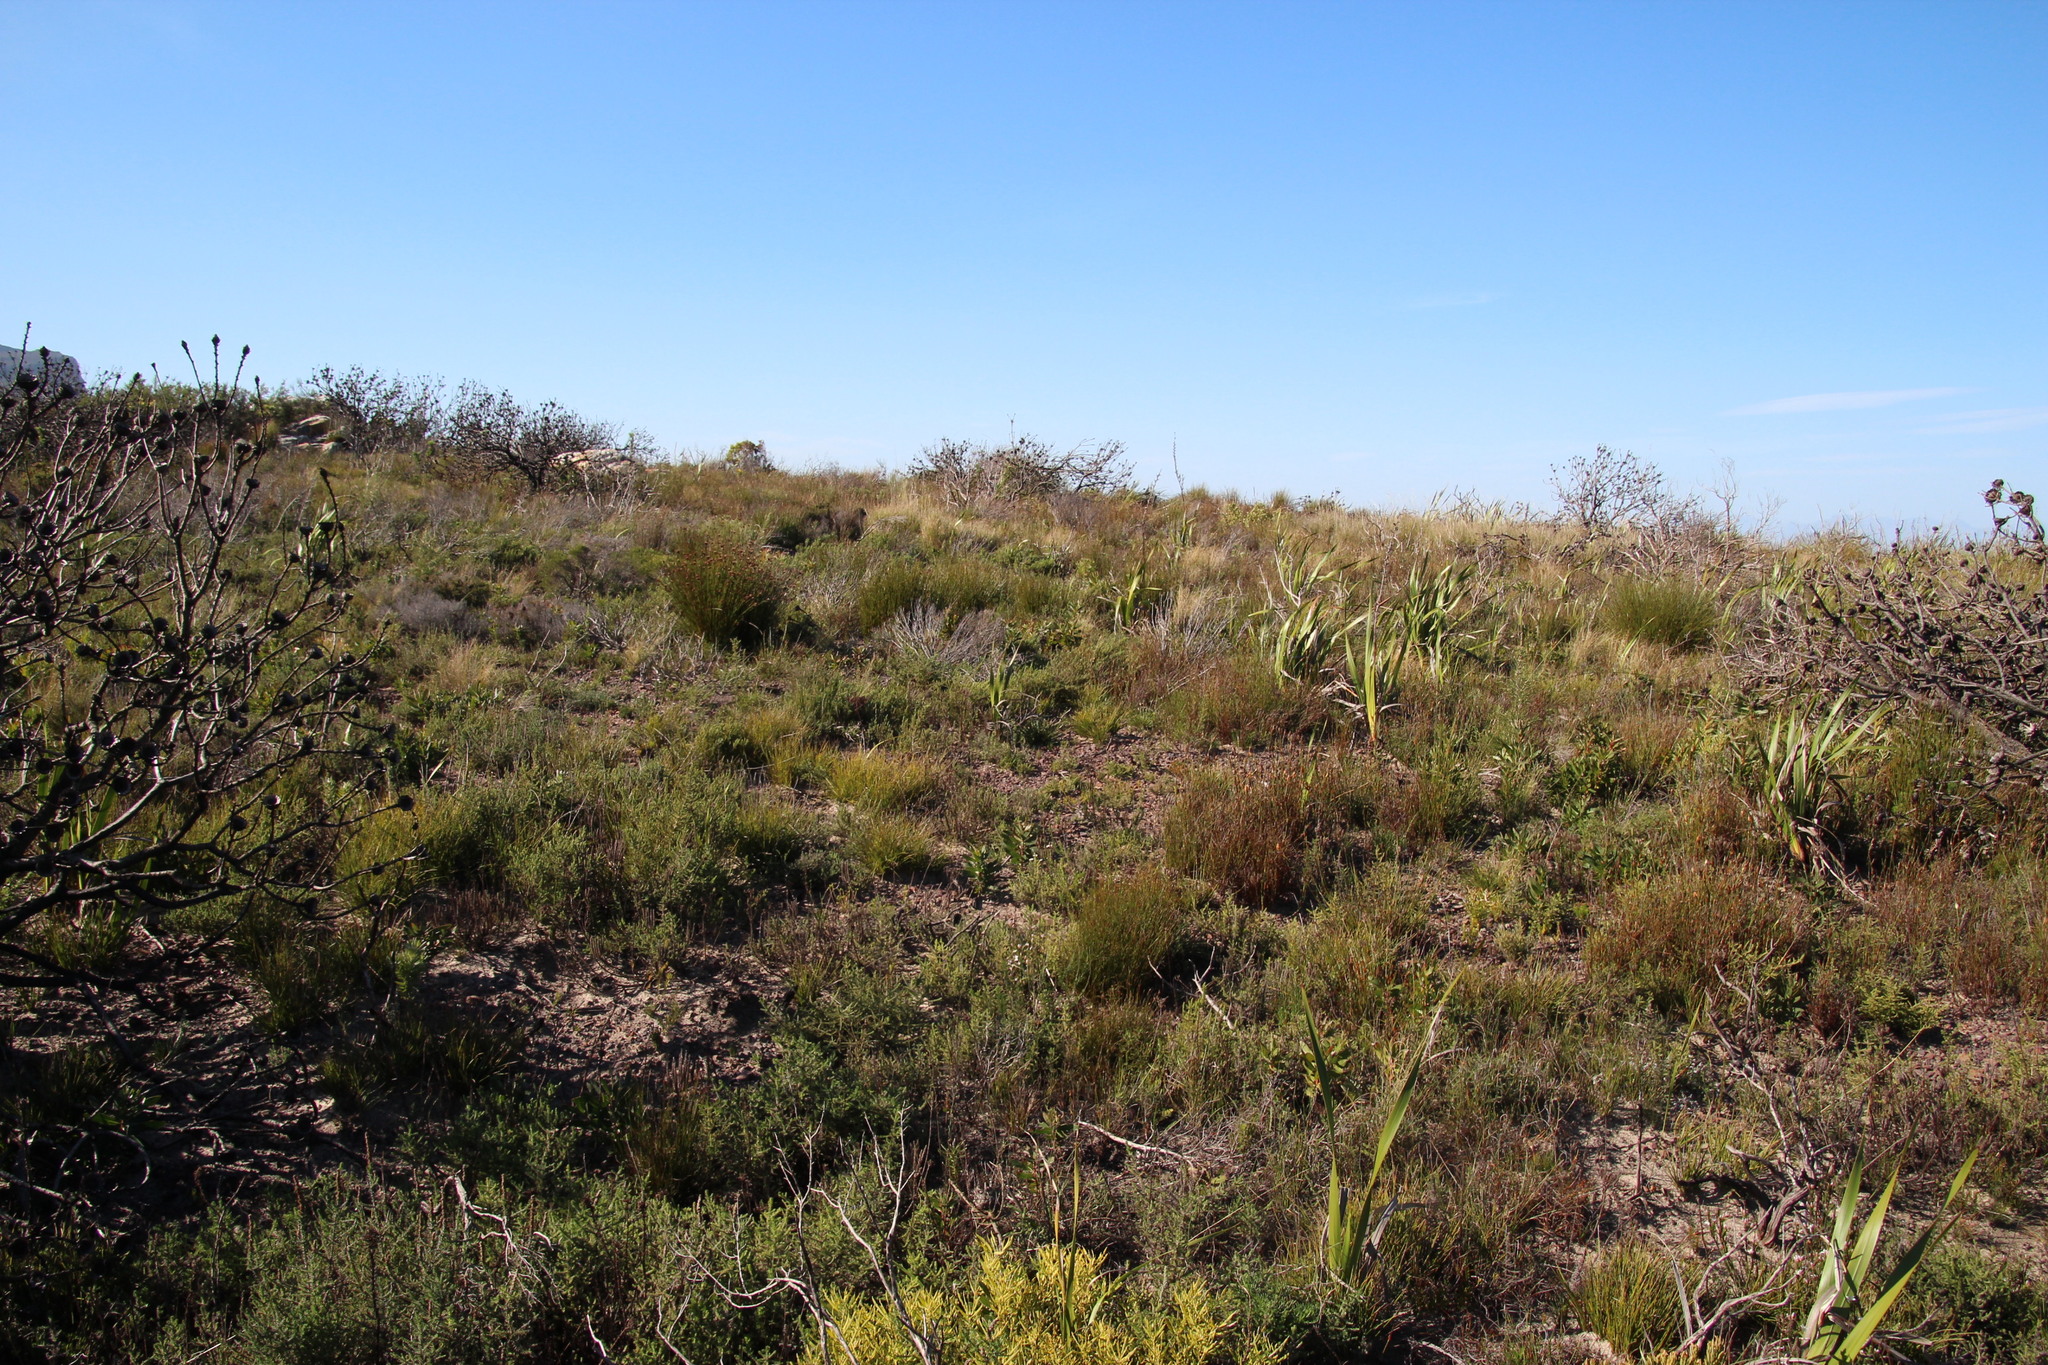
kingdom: Plantae
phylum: Tracheophyta
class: Magnoliopsida
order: Proteales
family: Proteaceae
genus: Protea
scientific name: Protea lepidocarpodendron
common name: Black-bearded protea
